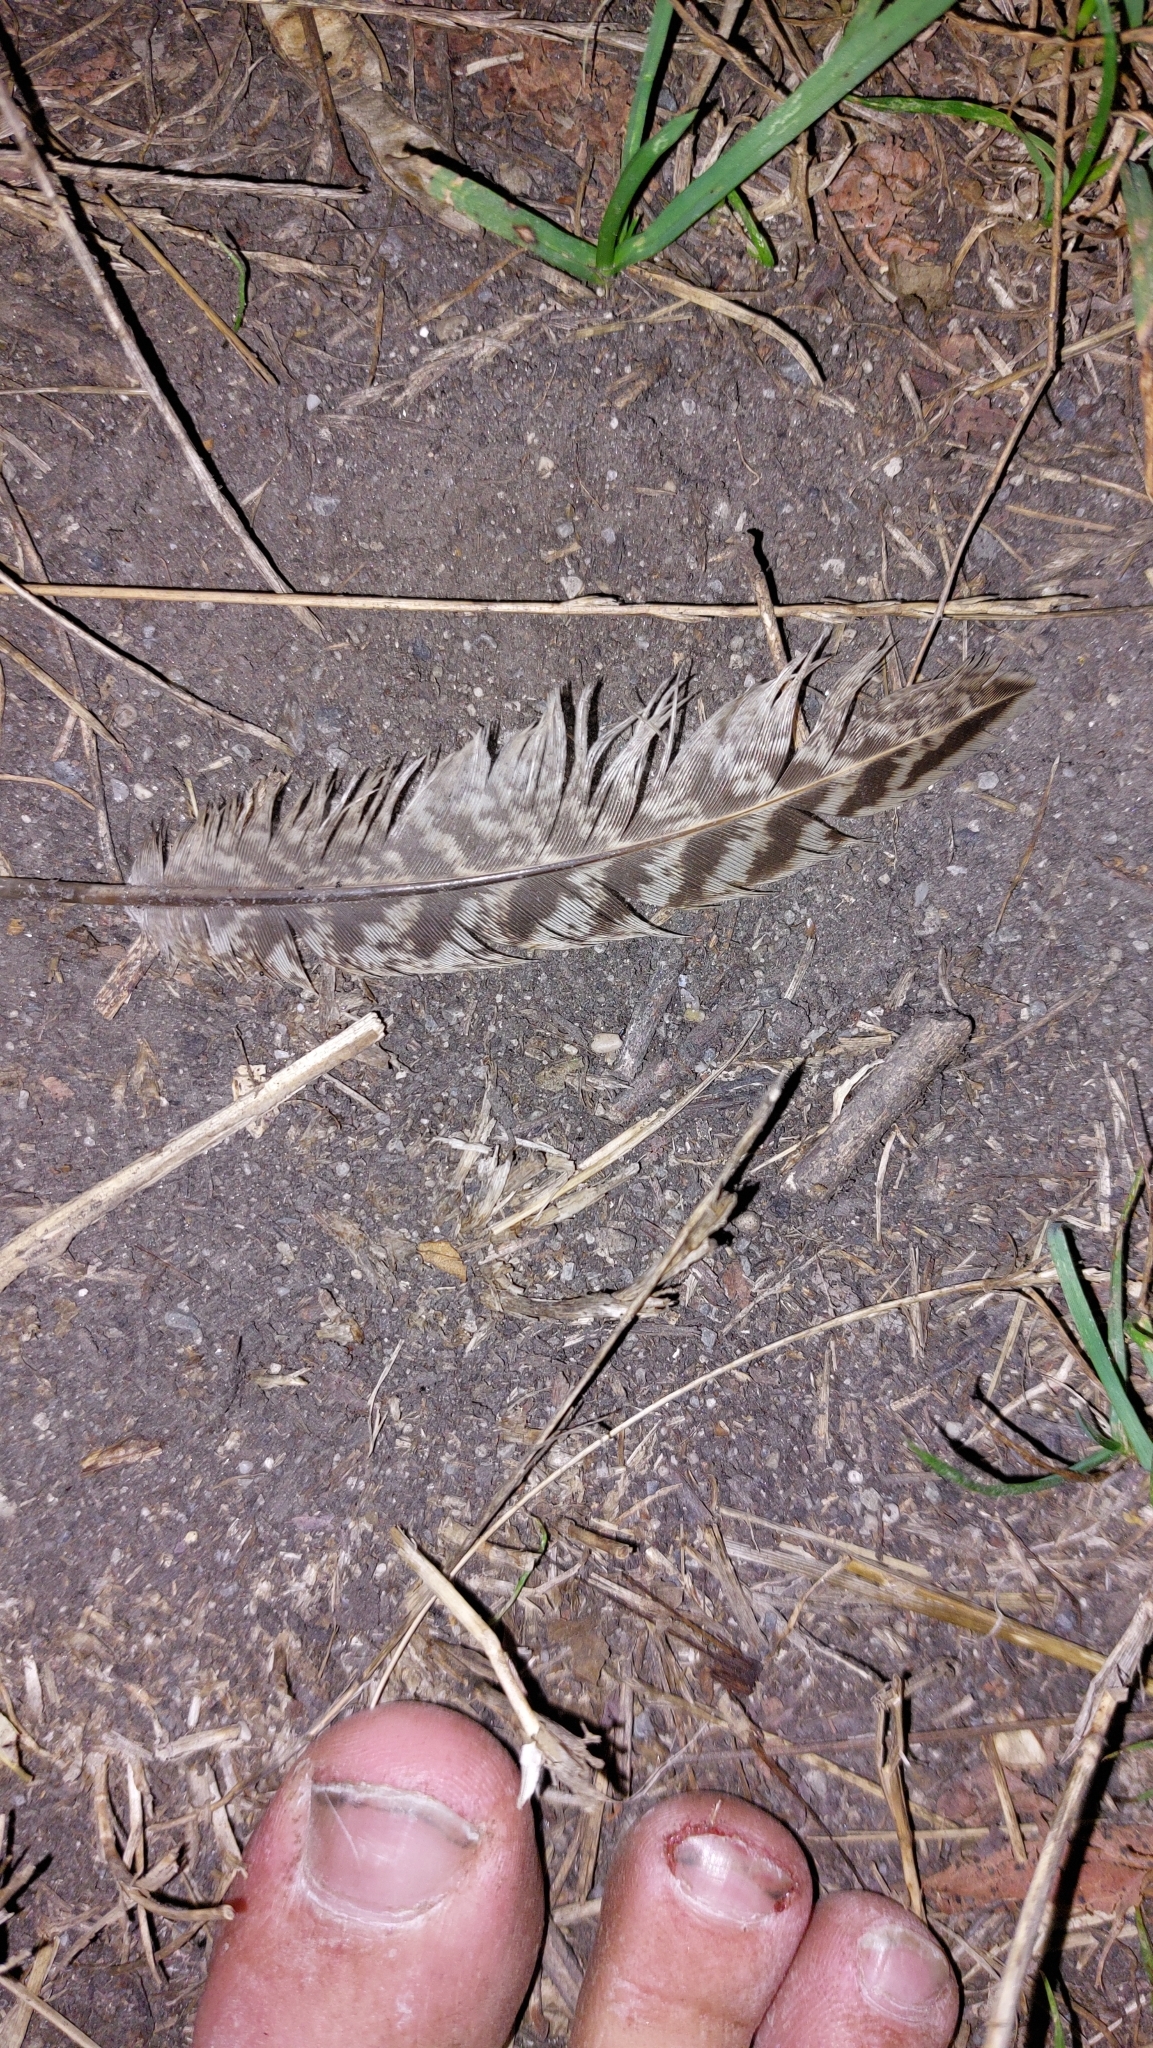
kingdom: Animalia
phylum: Chordata
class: Aves
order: Galliformes
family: Phasianidae
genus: Phasianus
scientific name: Phasianus colchicus
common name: Common pheasant
